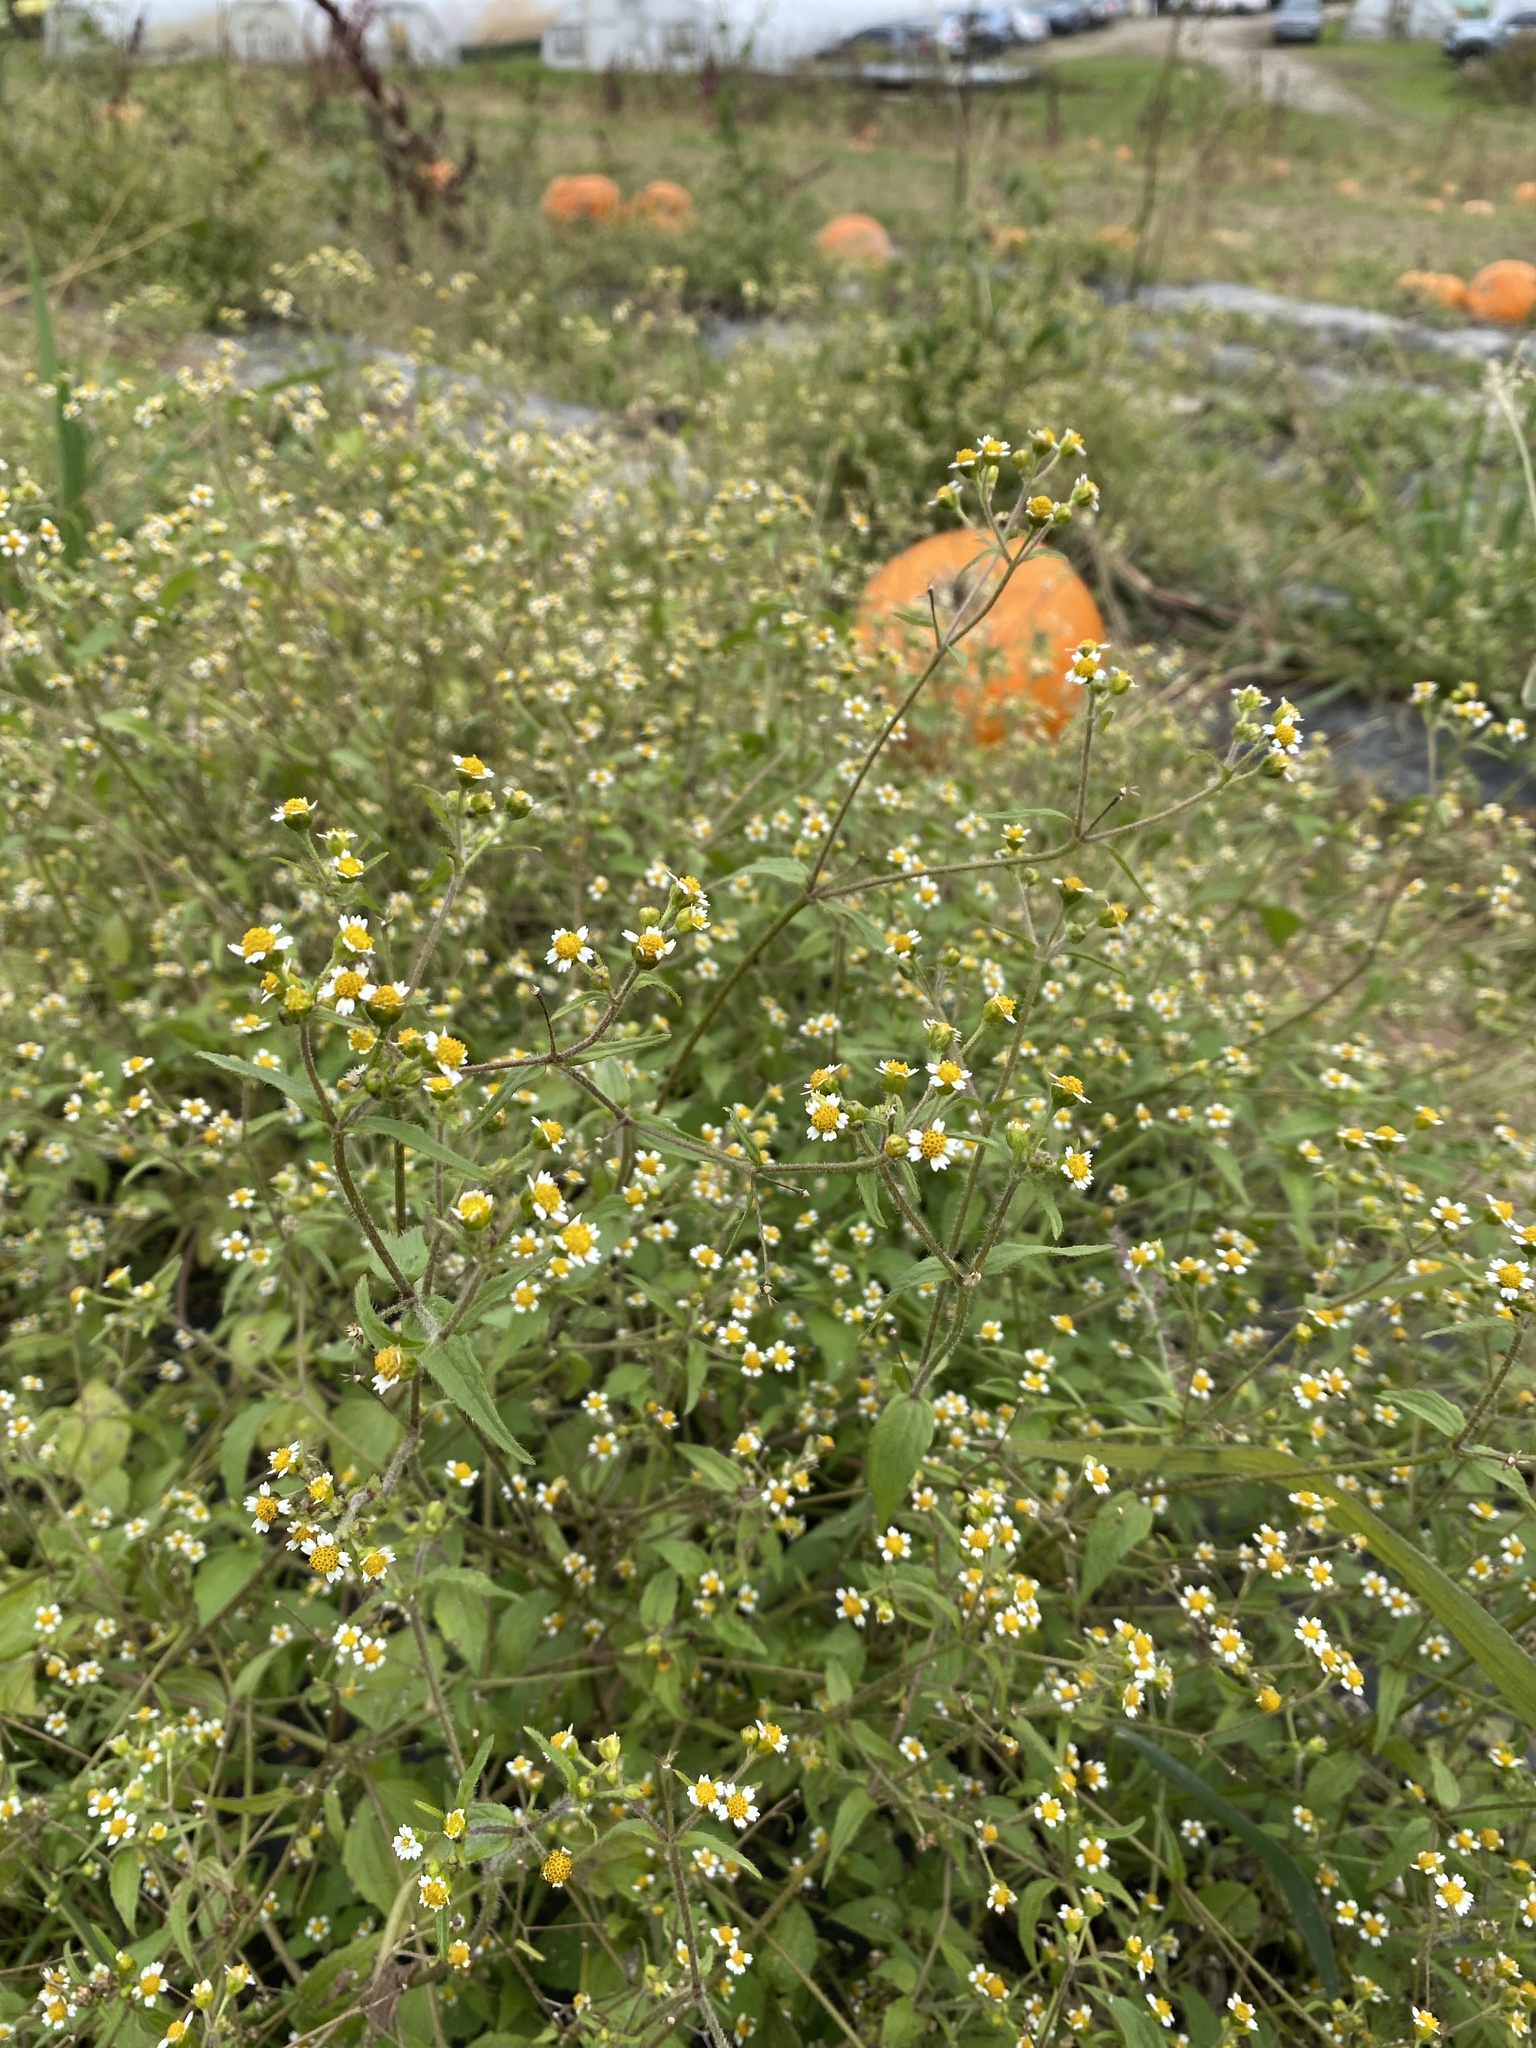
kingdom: Plantae
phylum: Tracheophyta
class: Magnoliopsida
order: Asterales
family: Asteraceae
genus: Galinsoga
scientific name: Galinsoga quadriradiata
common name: Shaggy soldier
